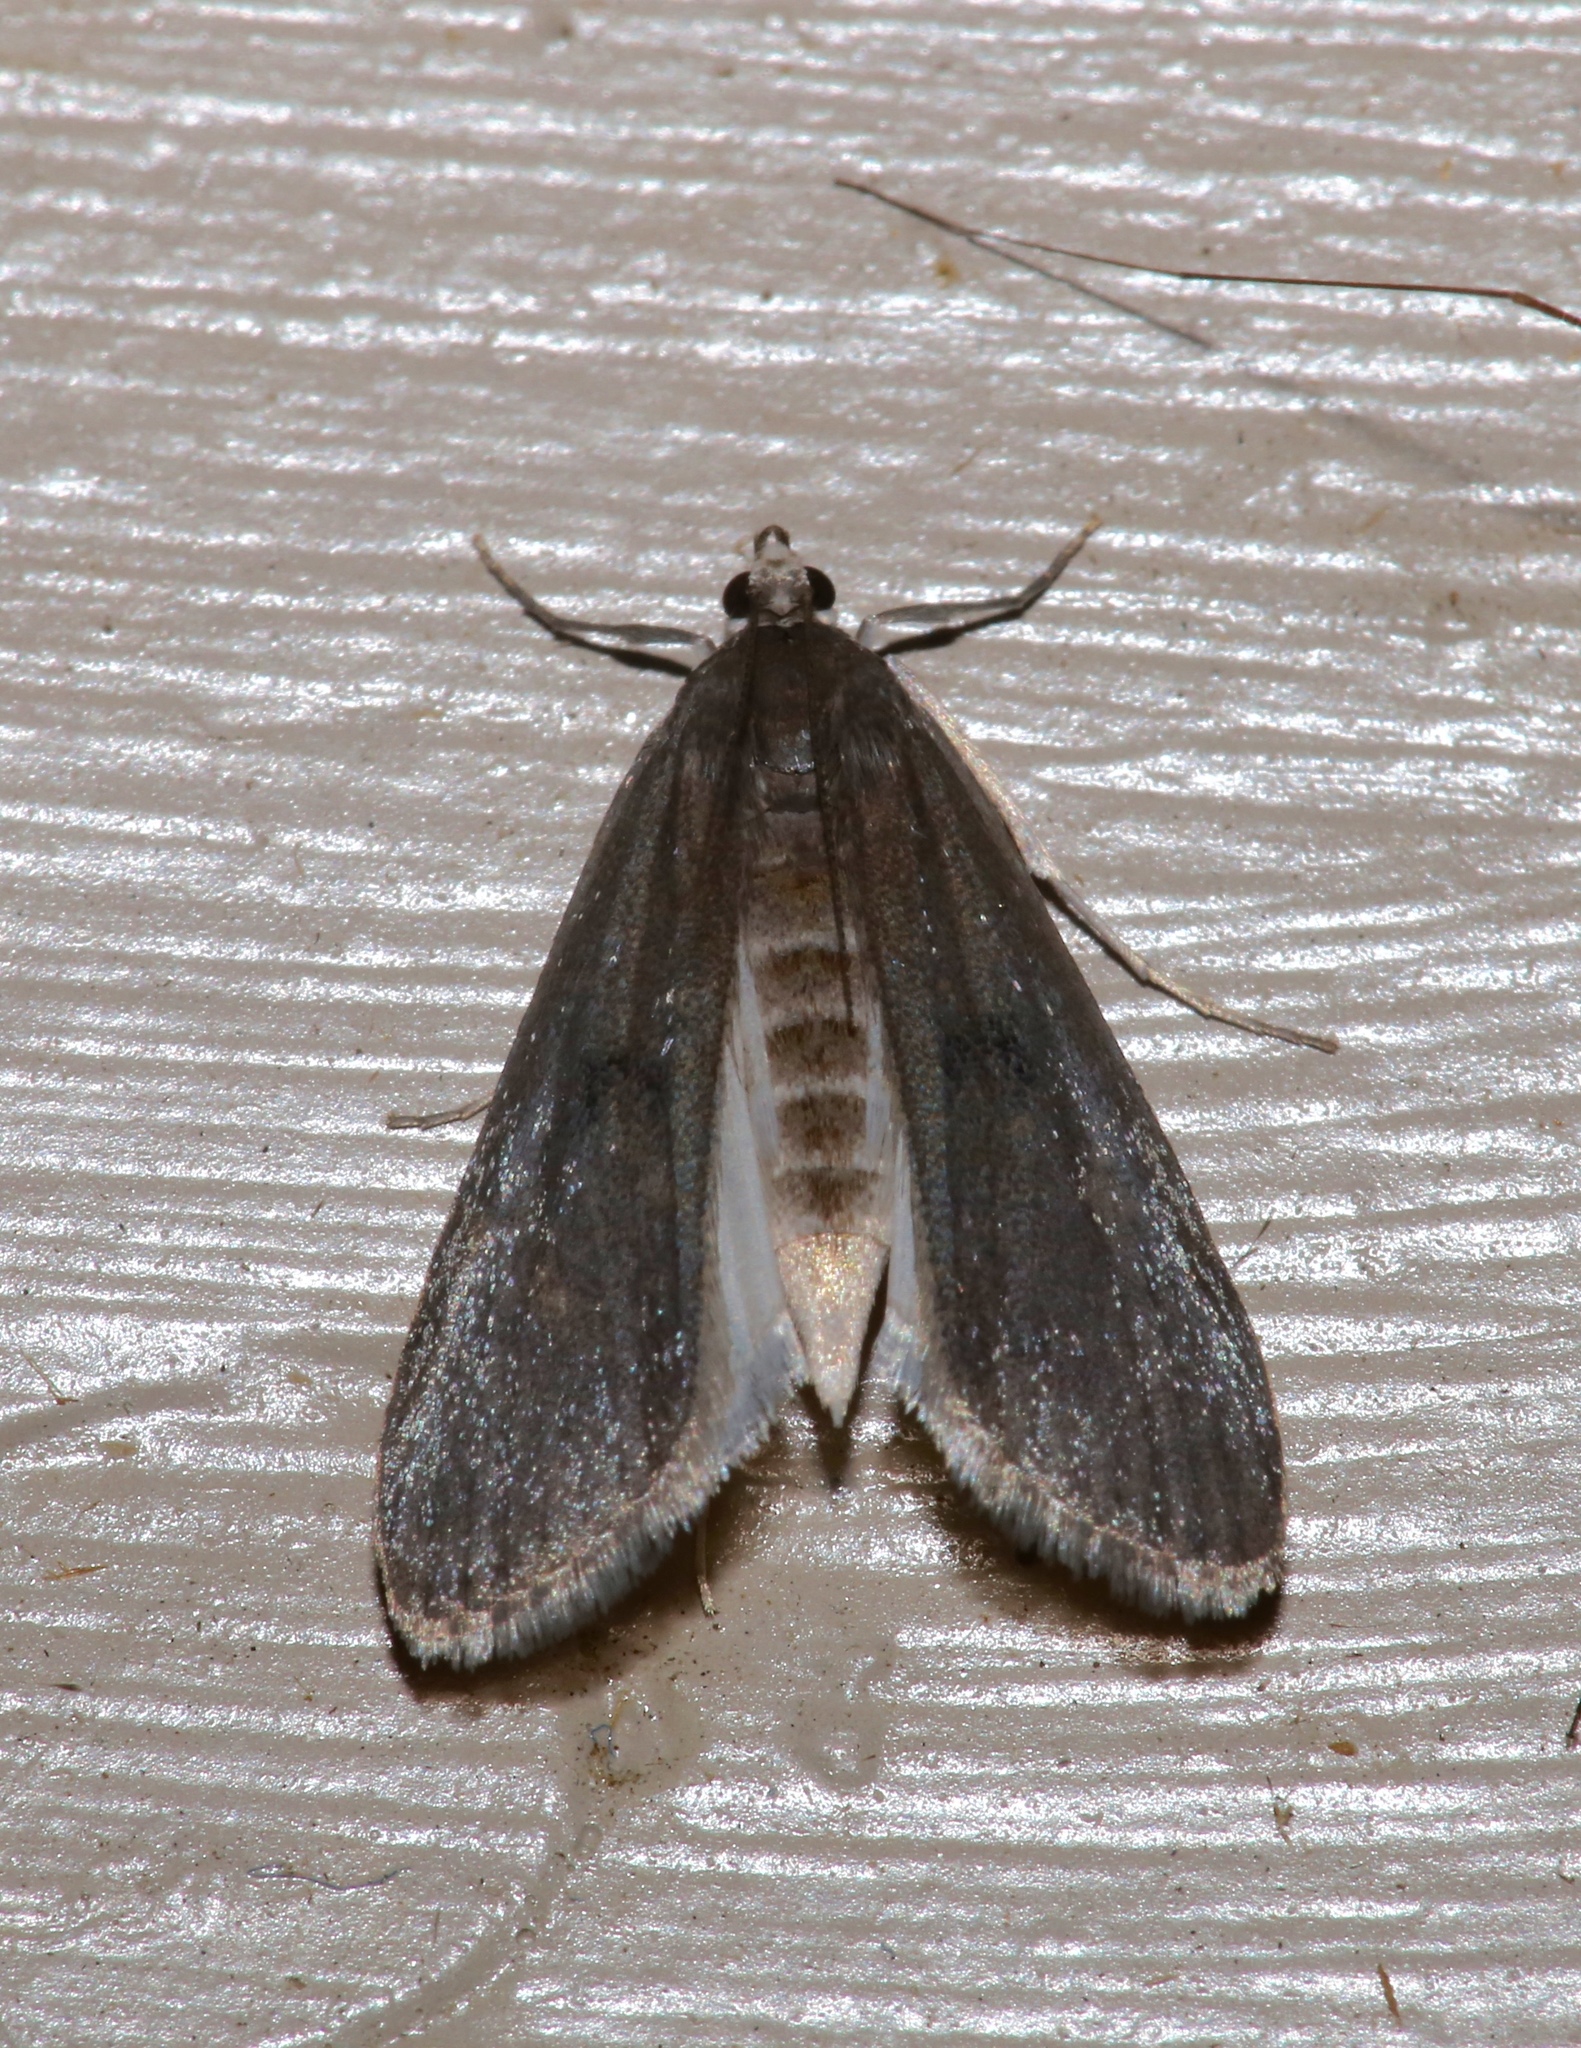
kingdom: Animalia
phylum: Arthropoda
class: Insecta
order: Lepidoptera
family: Crambidae
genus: Parapoynx
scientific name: Parapoynx maculalis
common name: Polymorphic pondweed moth
